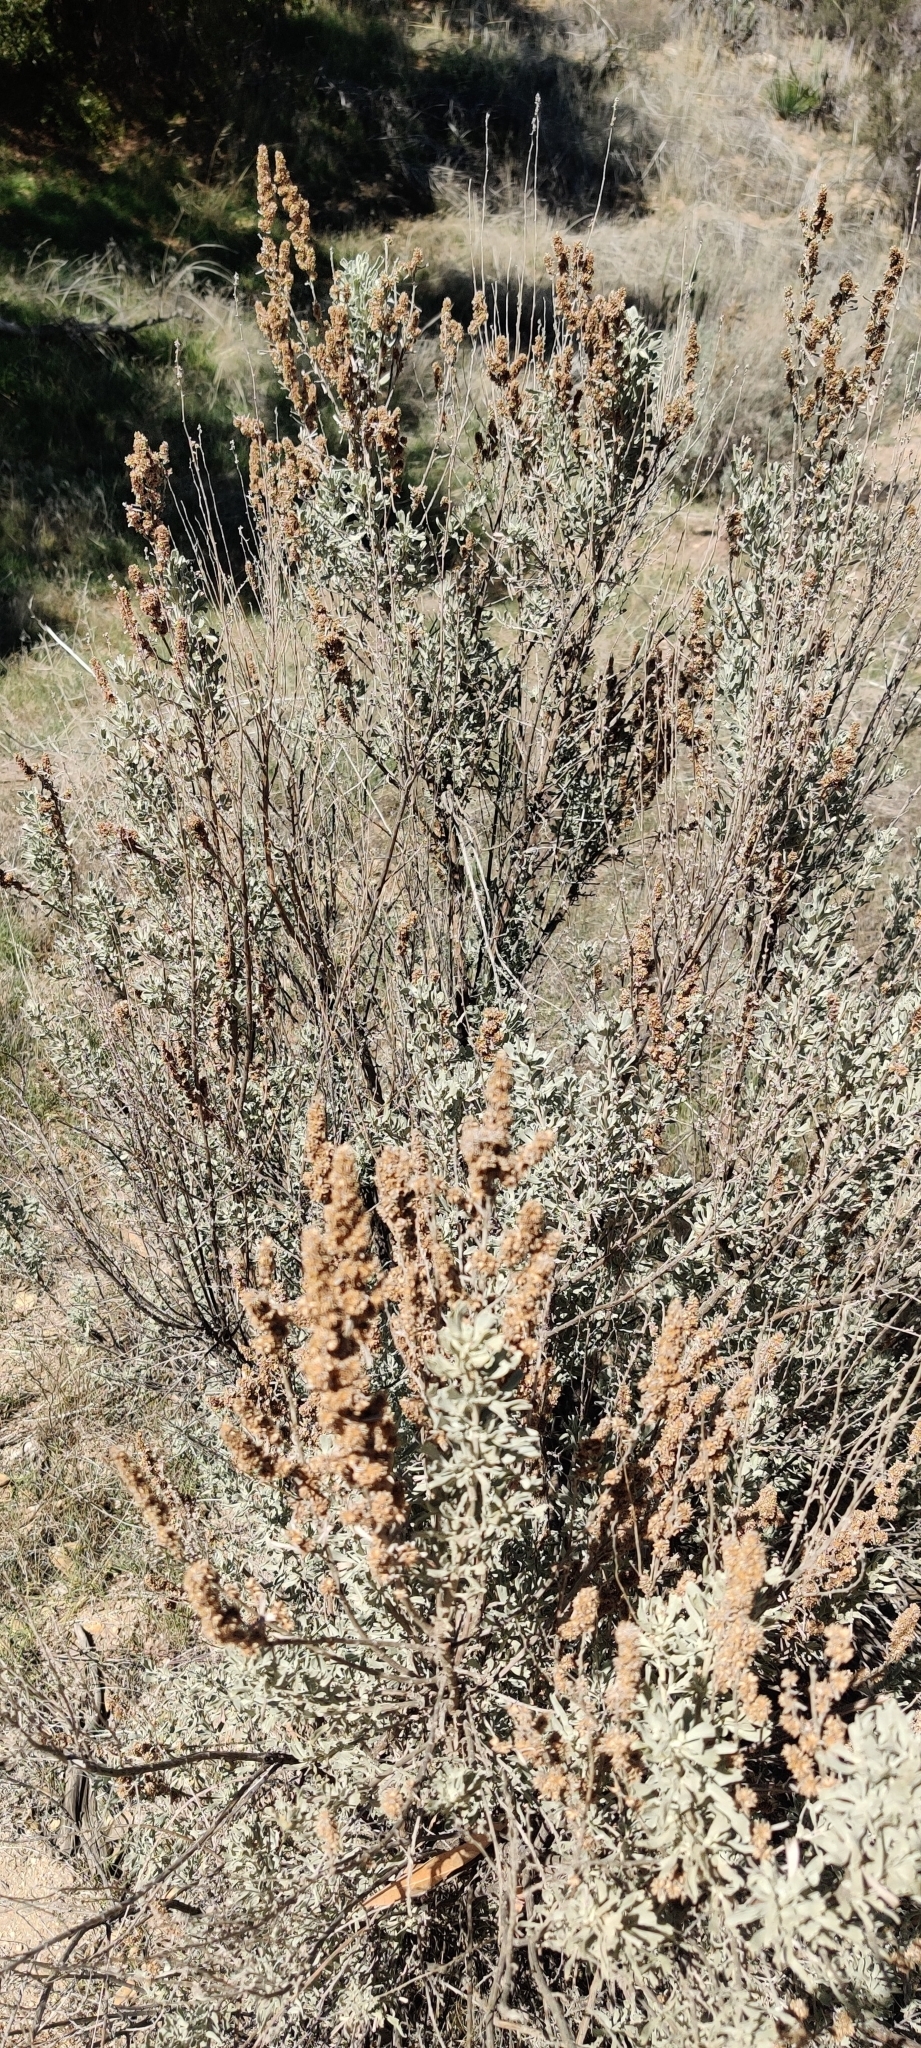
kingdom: Plantae
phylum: Tracheophyta
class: Magnoliopsida
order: Asterales
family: Asteraceae
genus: Artemisia
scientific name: Artemisia tridentata
